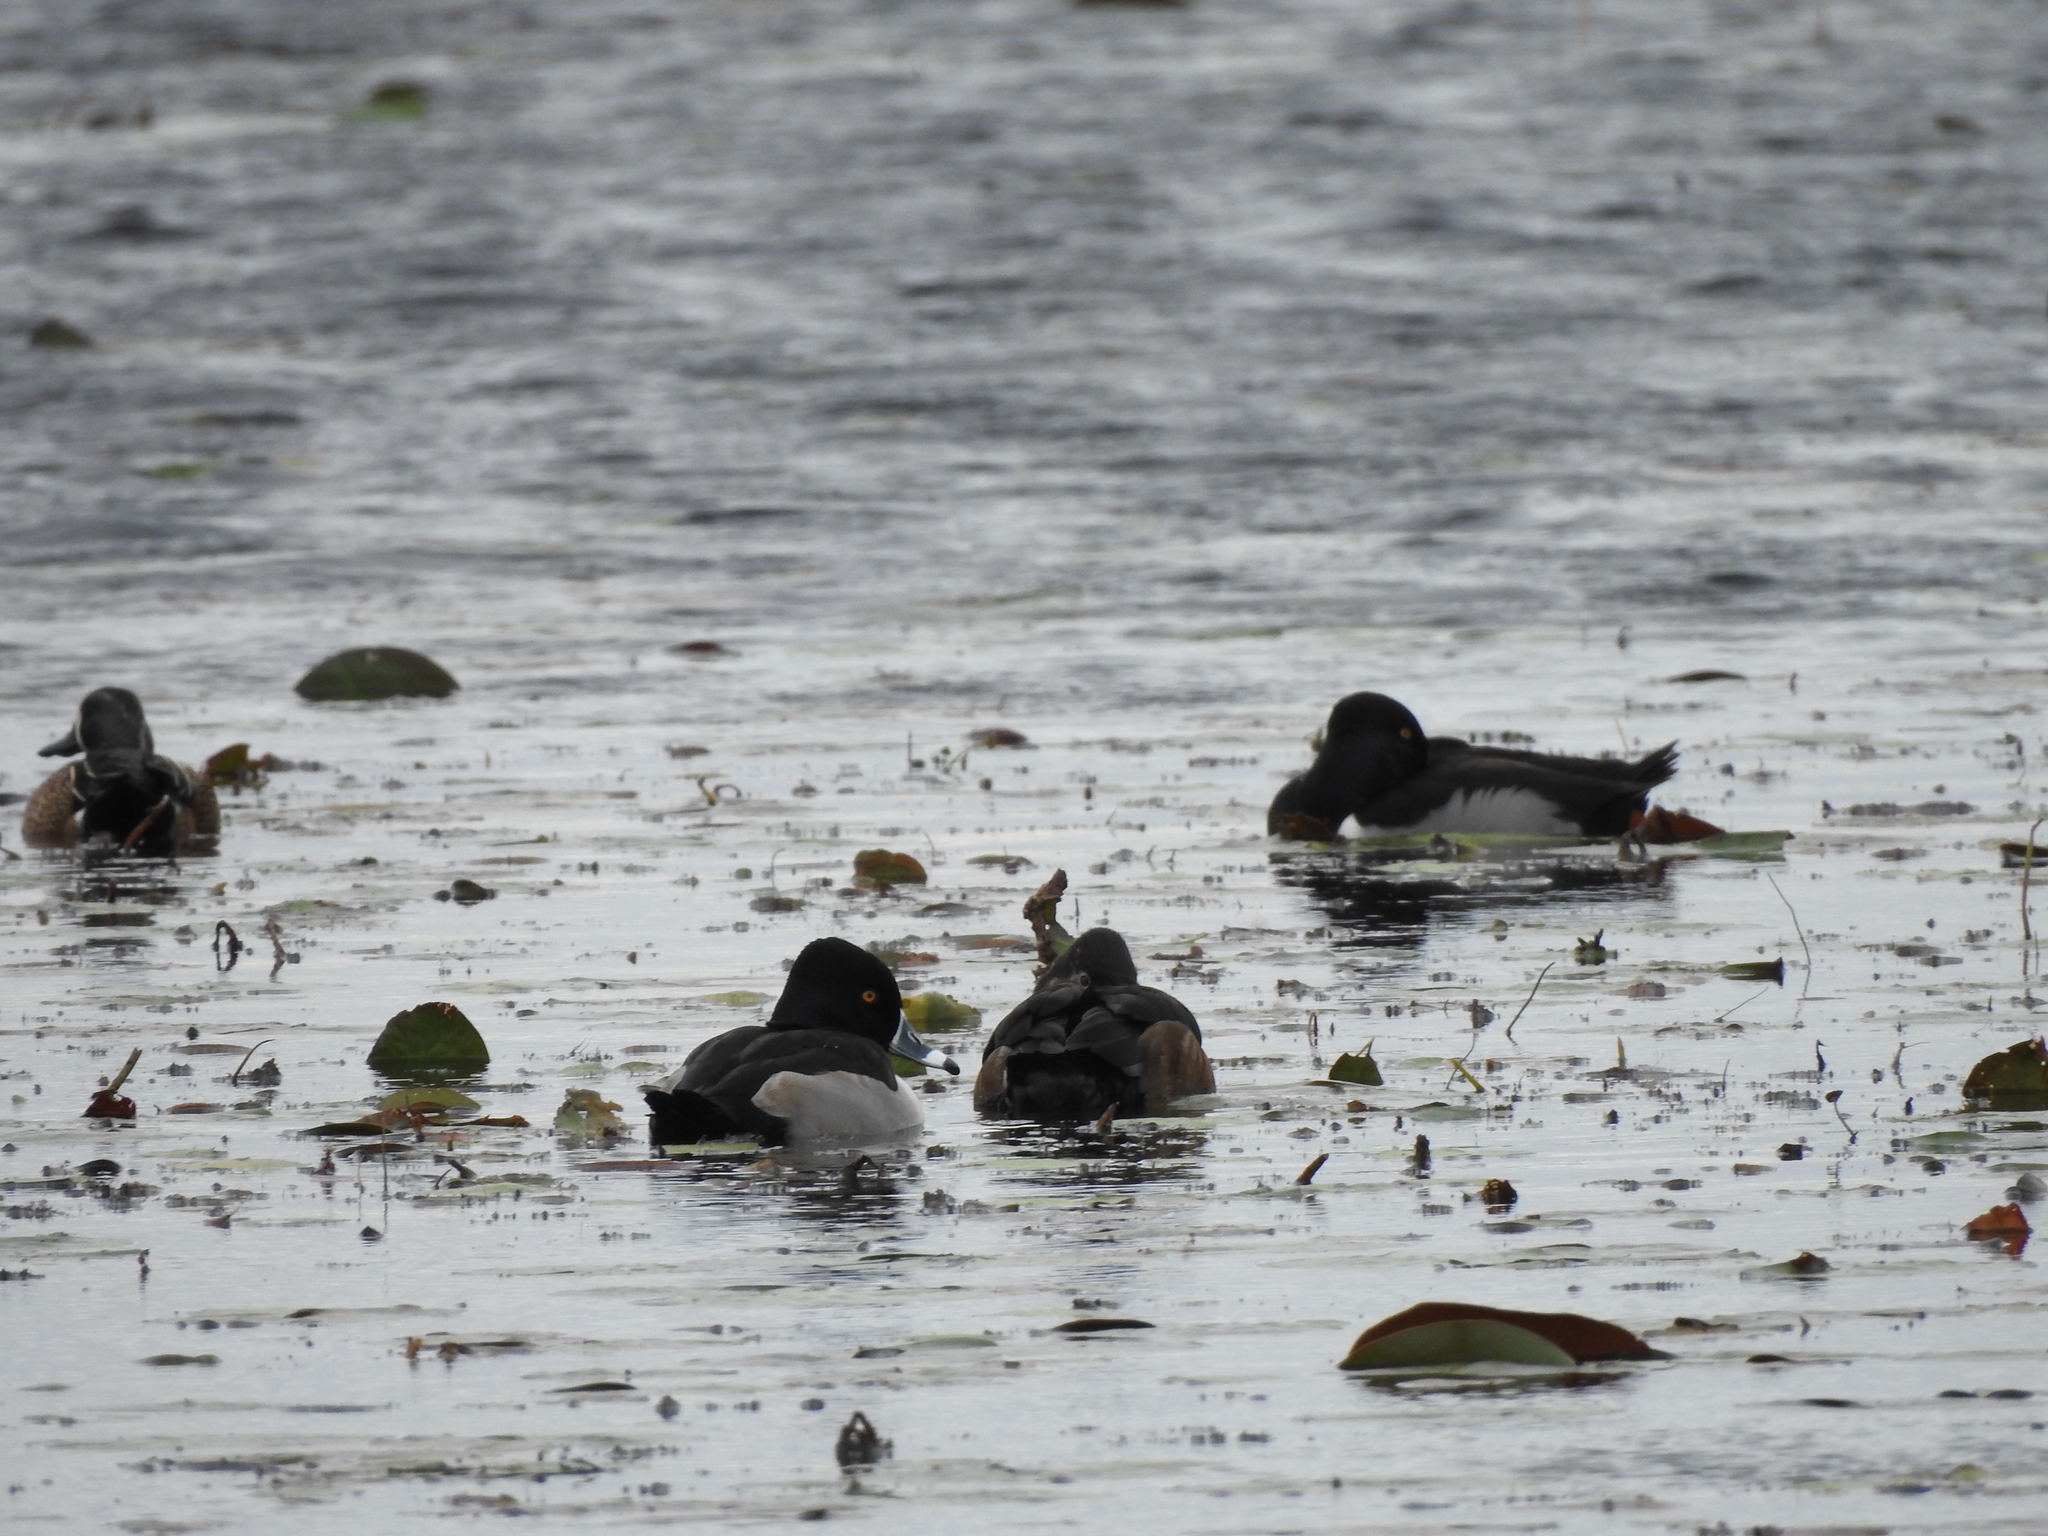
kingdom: Animalia
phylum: Chordata
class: Aves
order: Anseriformes
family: Anatidae
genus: Aythya
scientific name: Aythya collaris
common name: Ring-necked duck
